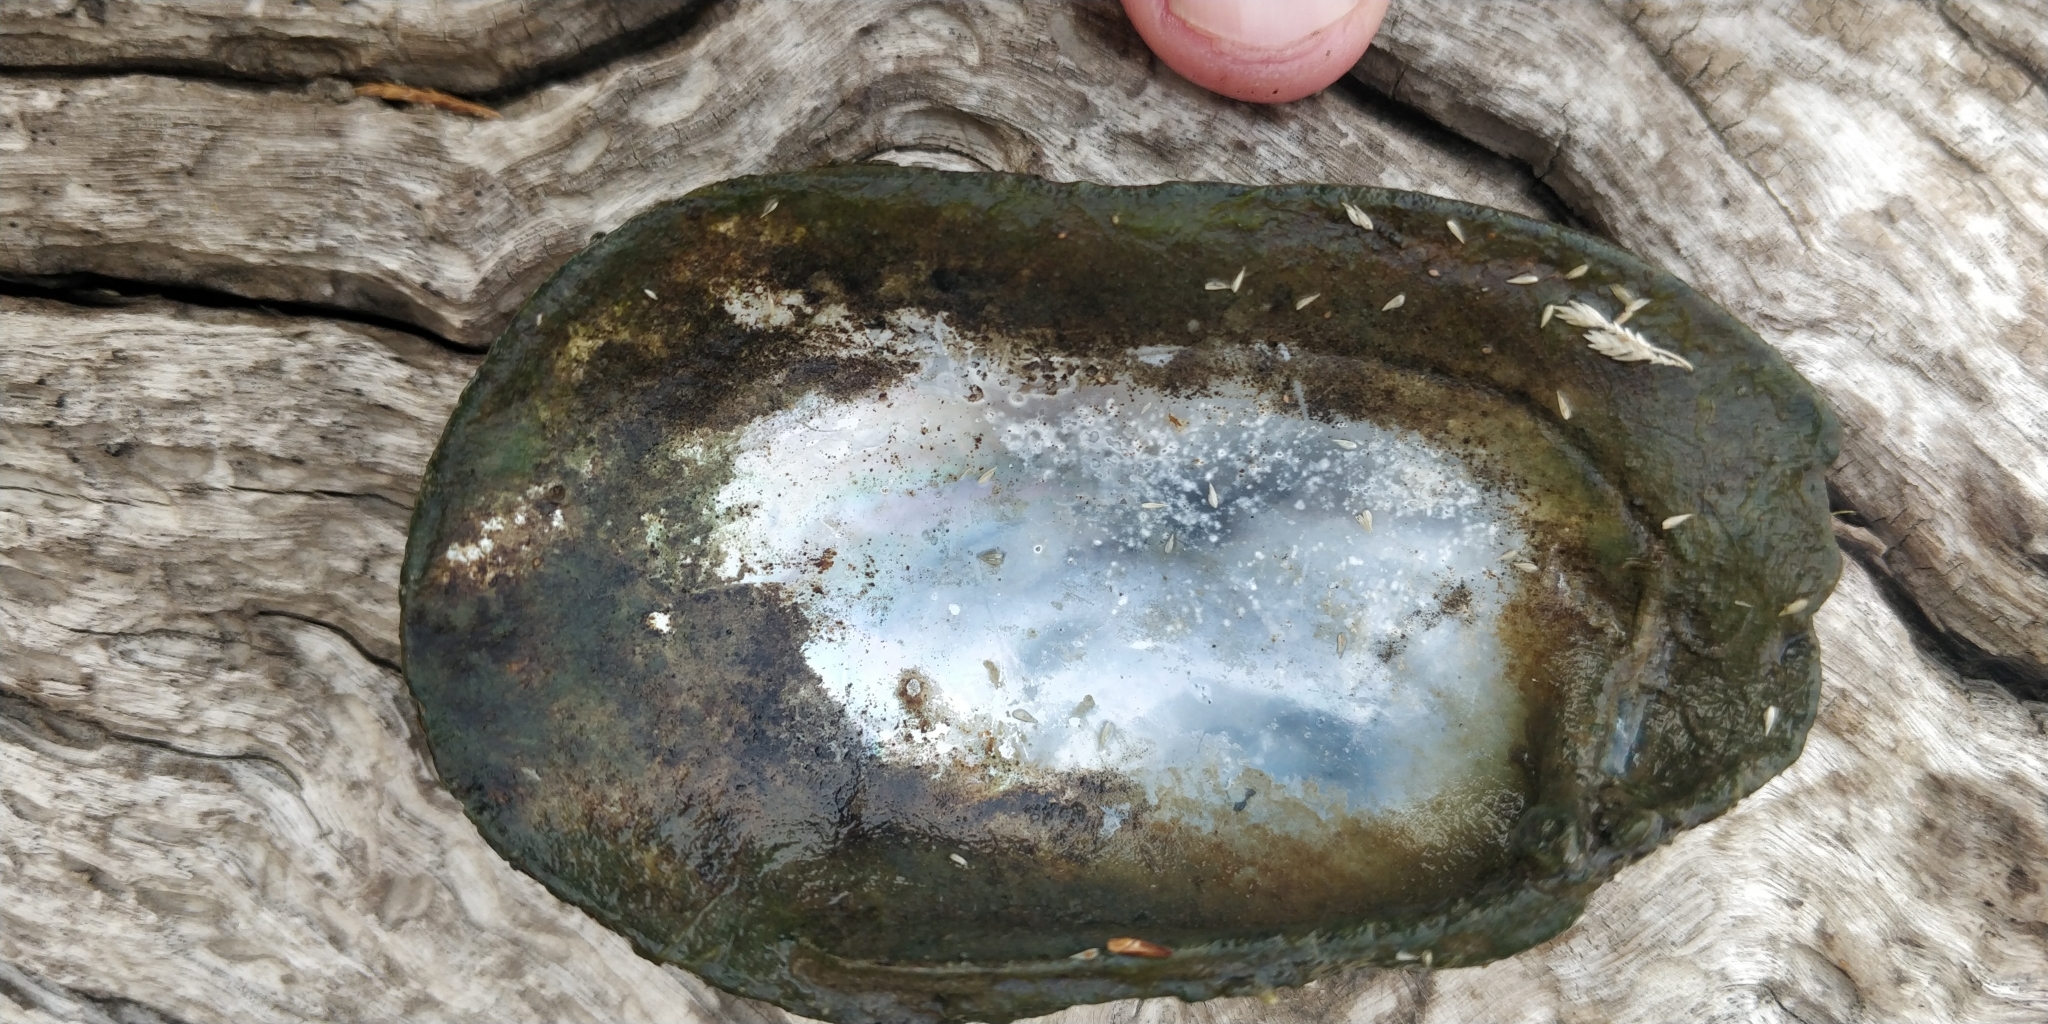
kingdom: Animalia
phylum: Mollusca
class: Bivalvia
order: Unionida
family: Unionidae
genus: Lampsilis
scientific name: Lampsilis siliquoidea
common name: Fatmucket
